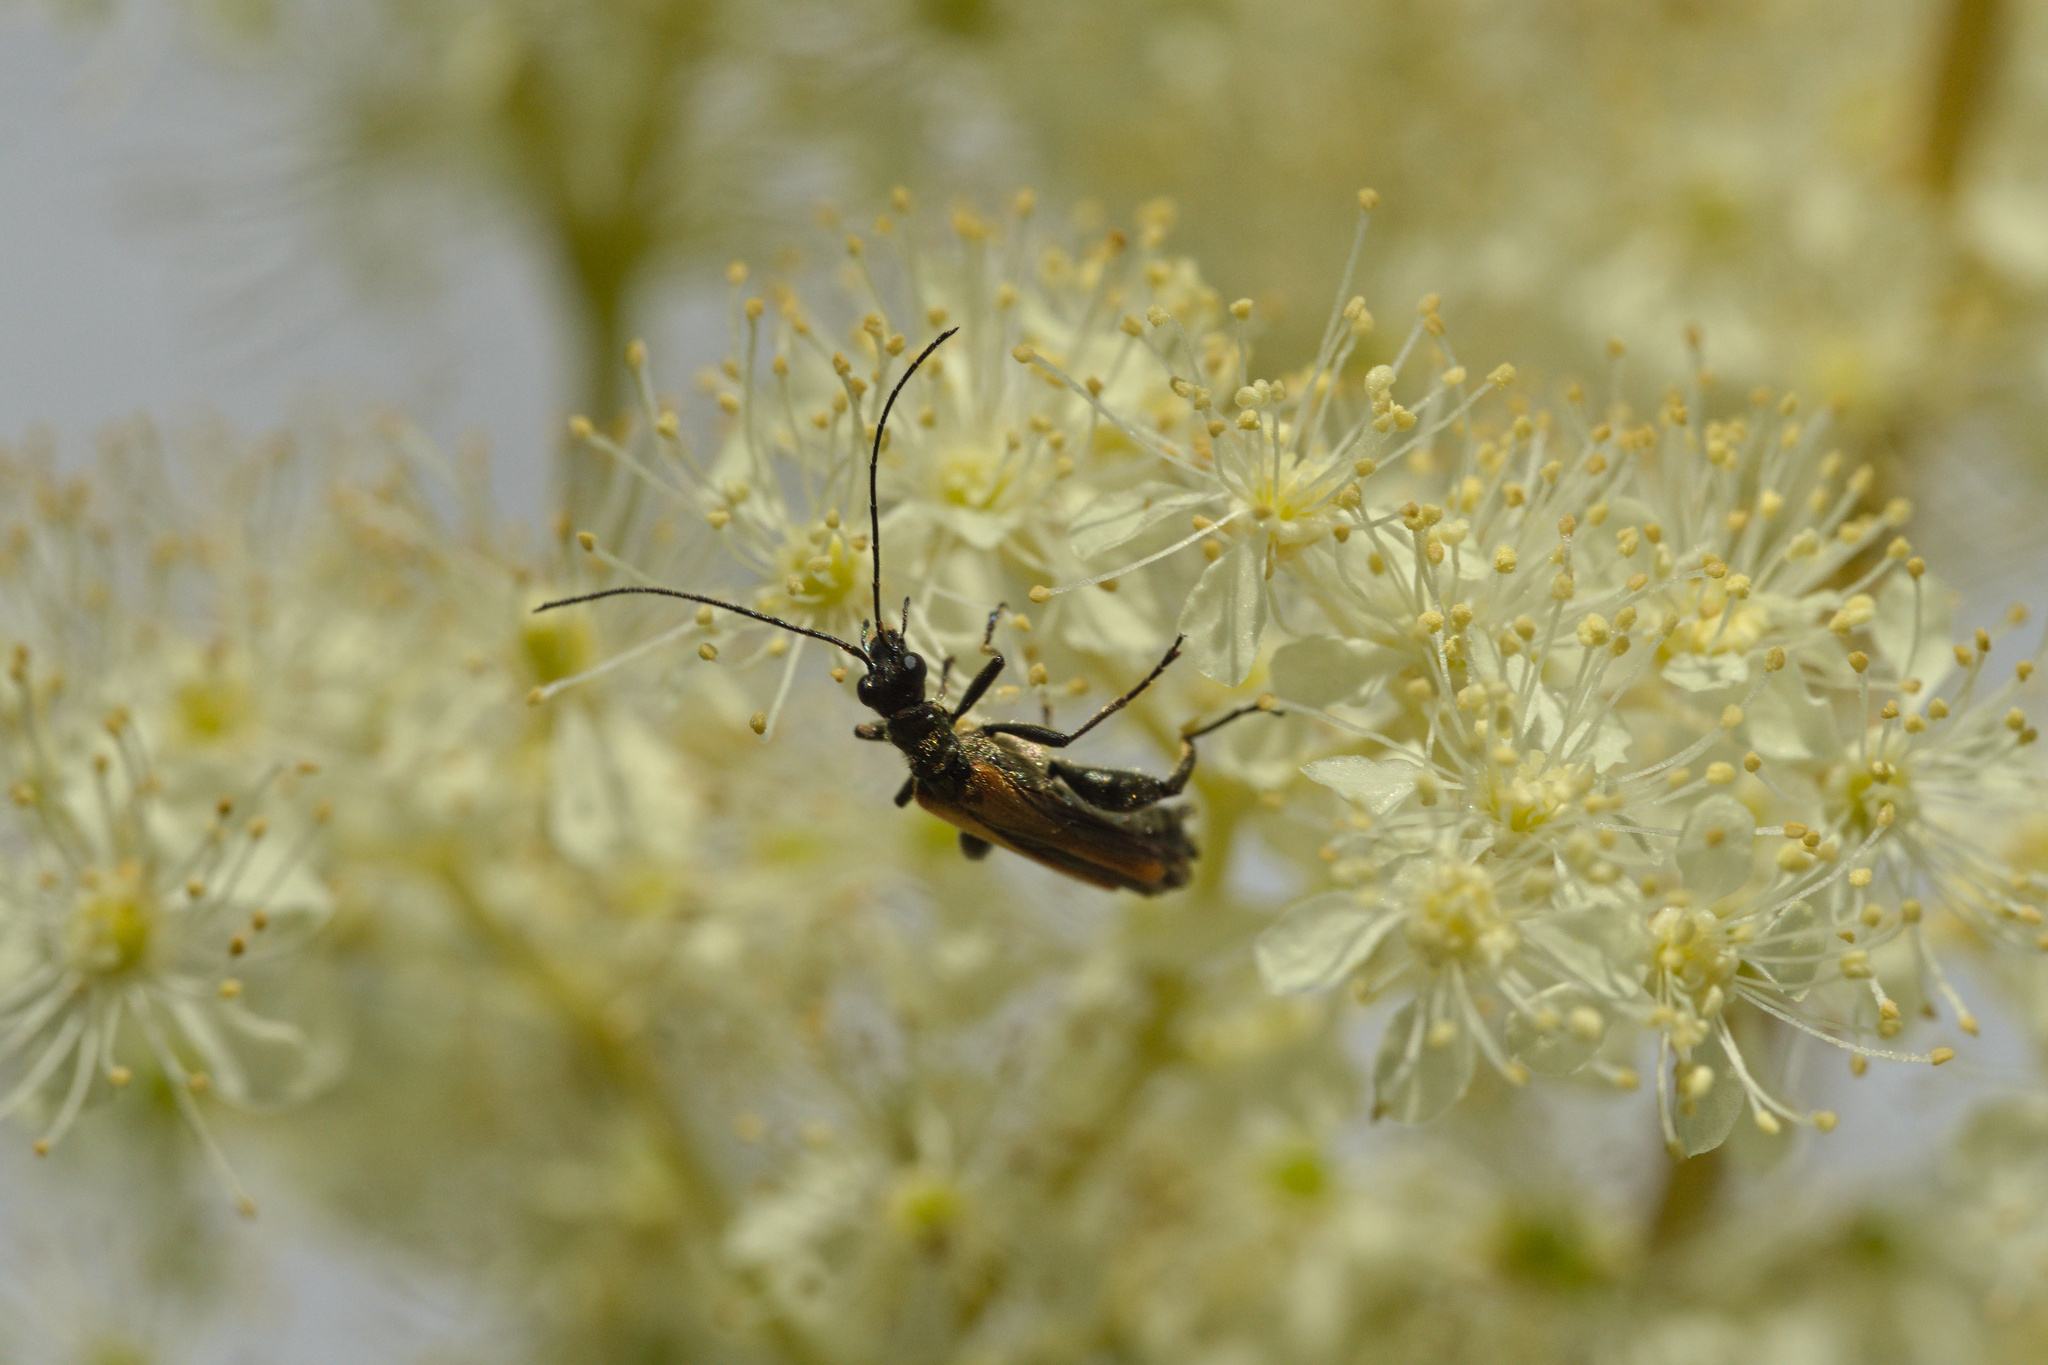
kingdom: Animalia
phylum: Arthropoda
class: Insecta
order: Coleoptera
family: Oedemeridae
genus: Oedemera
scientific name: Oedemera femorata
